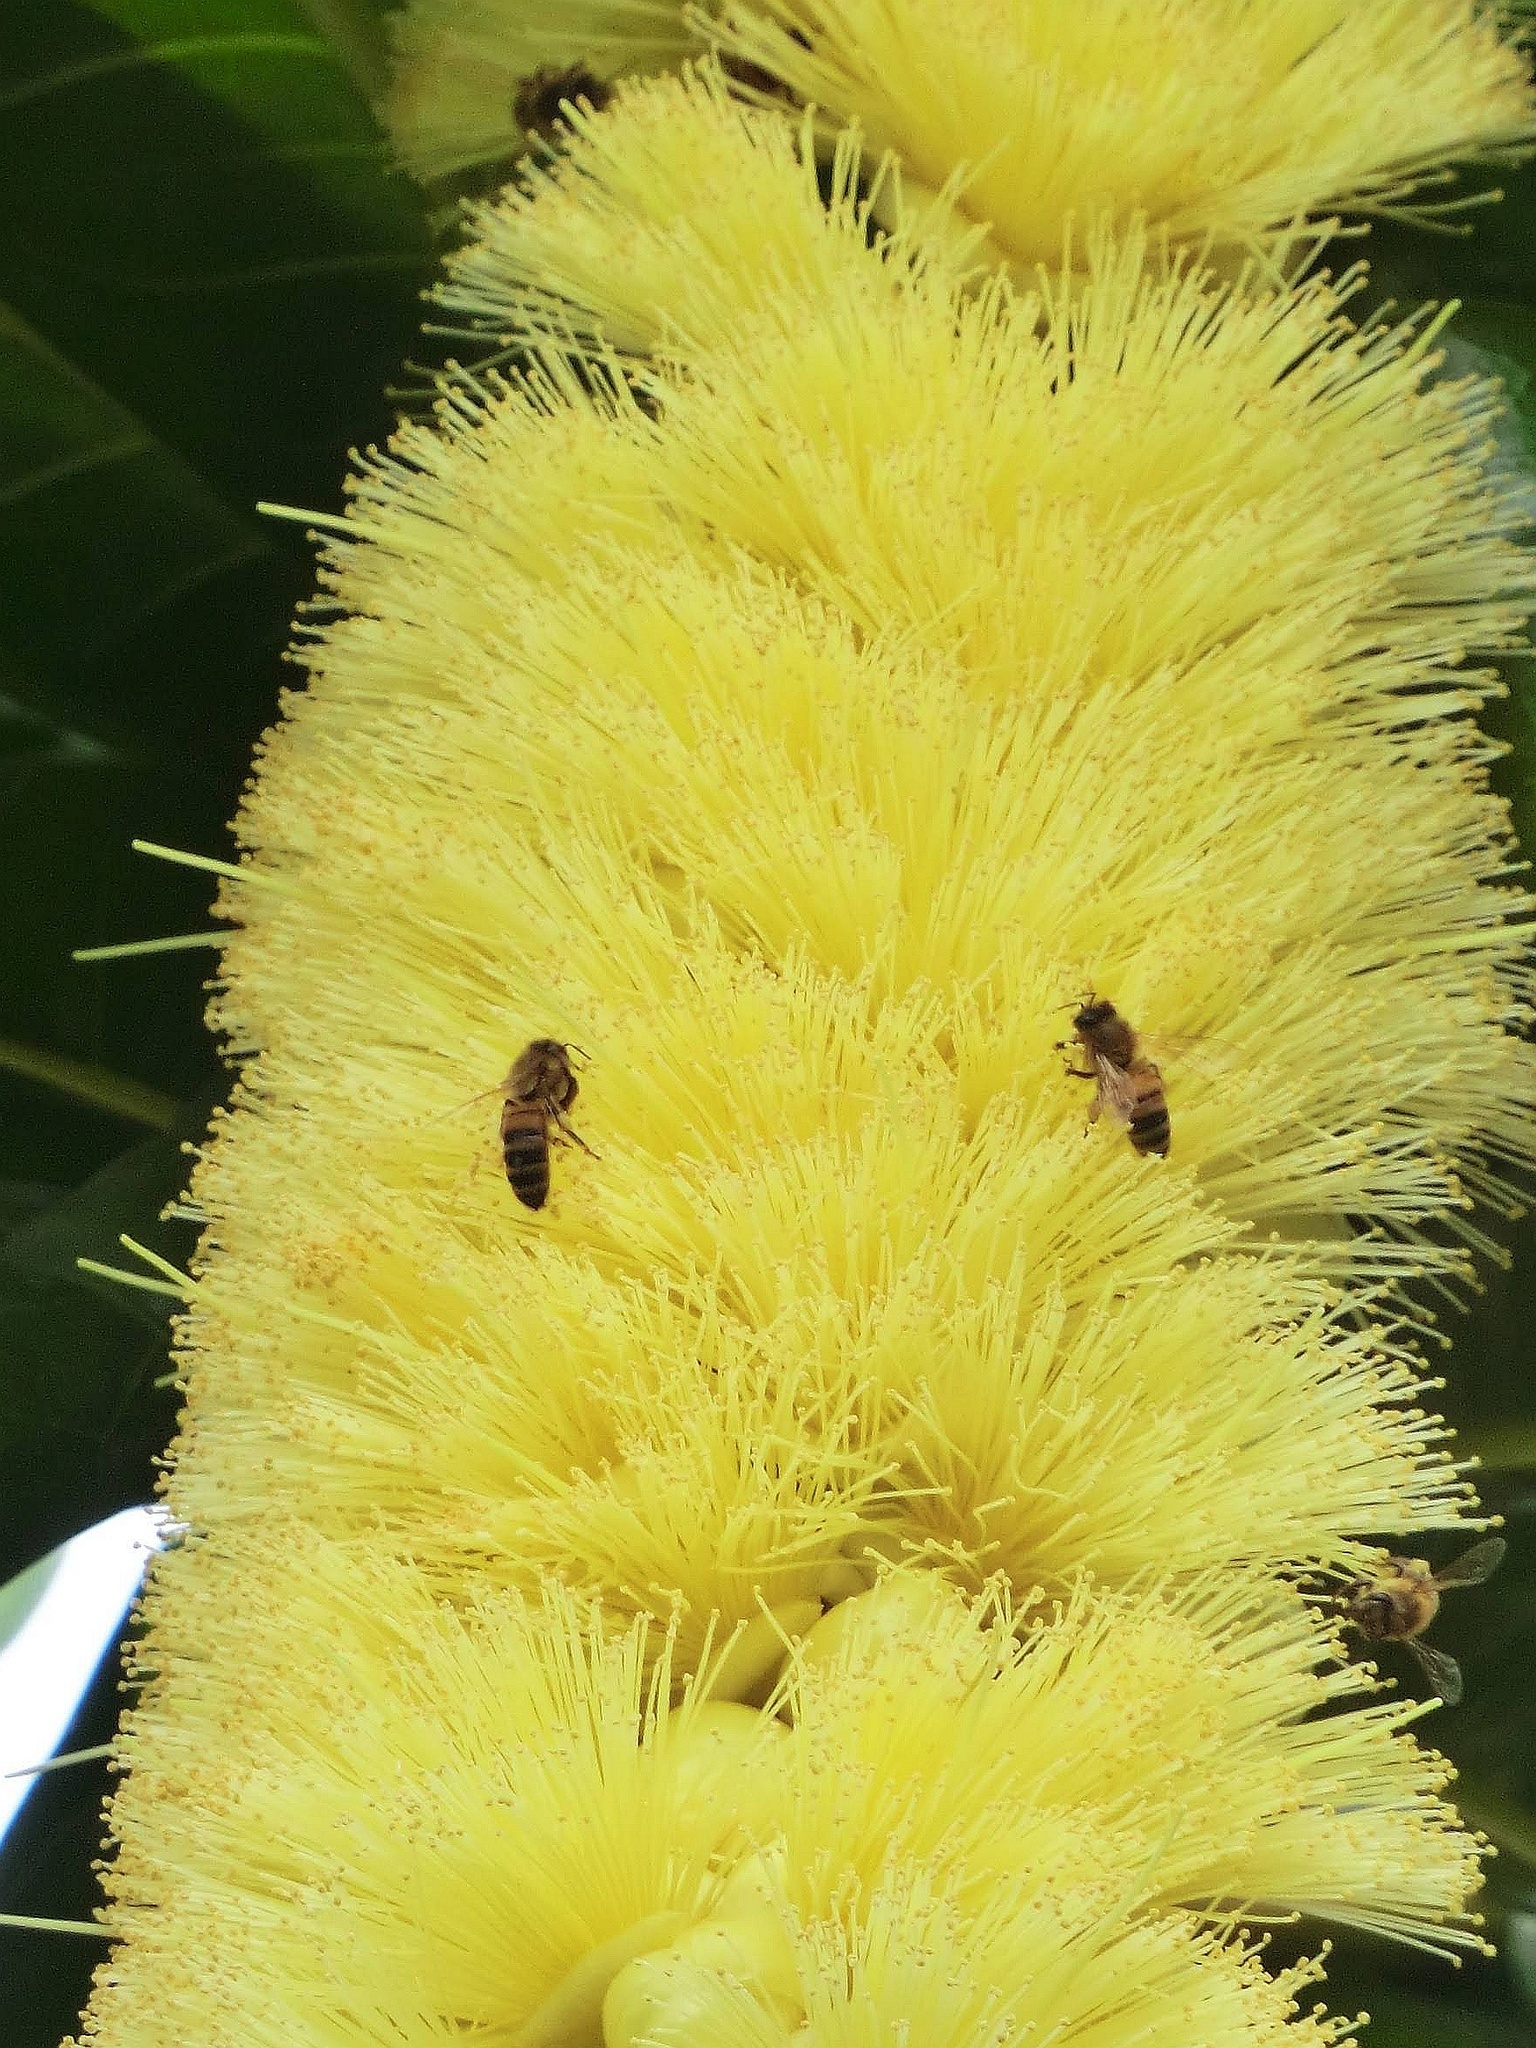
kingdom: Animalia
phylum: Arthropoda
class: Insecta
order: Hymenoptera
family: Apidae
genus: Apis
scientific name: Apis mellifera
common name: Honey bee
